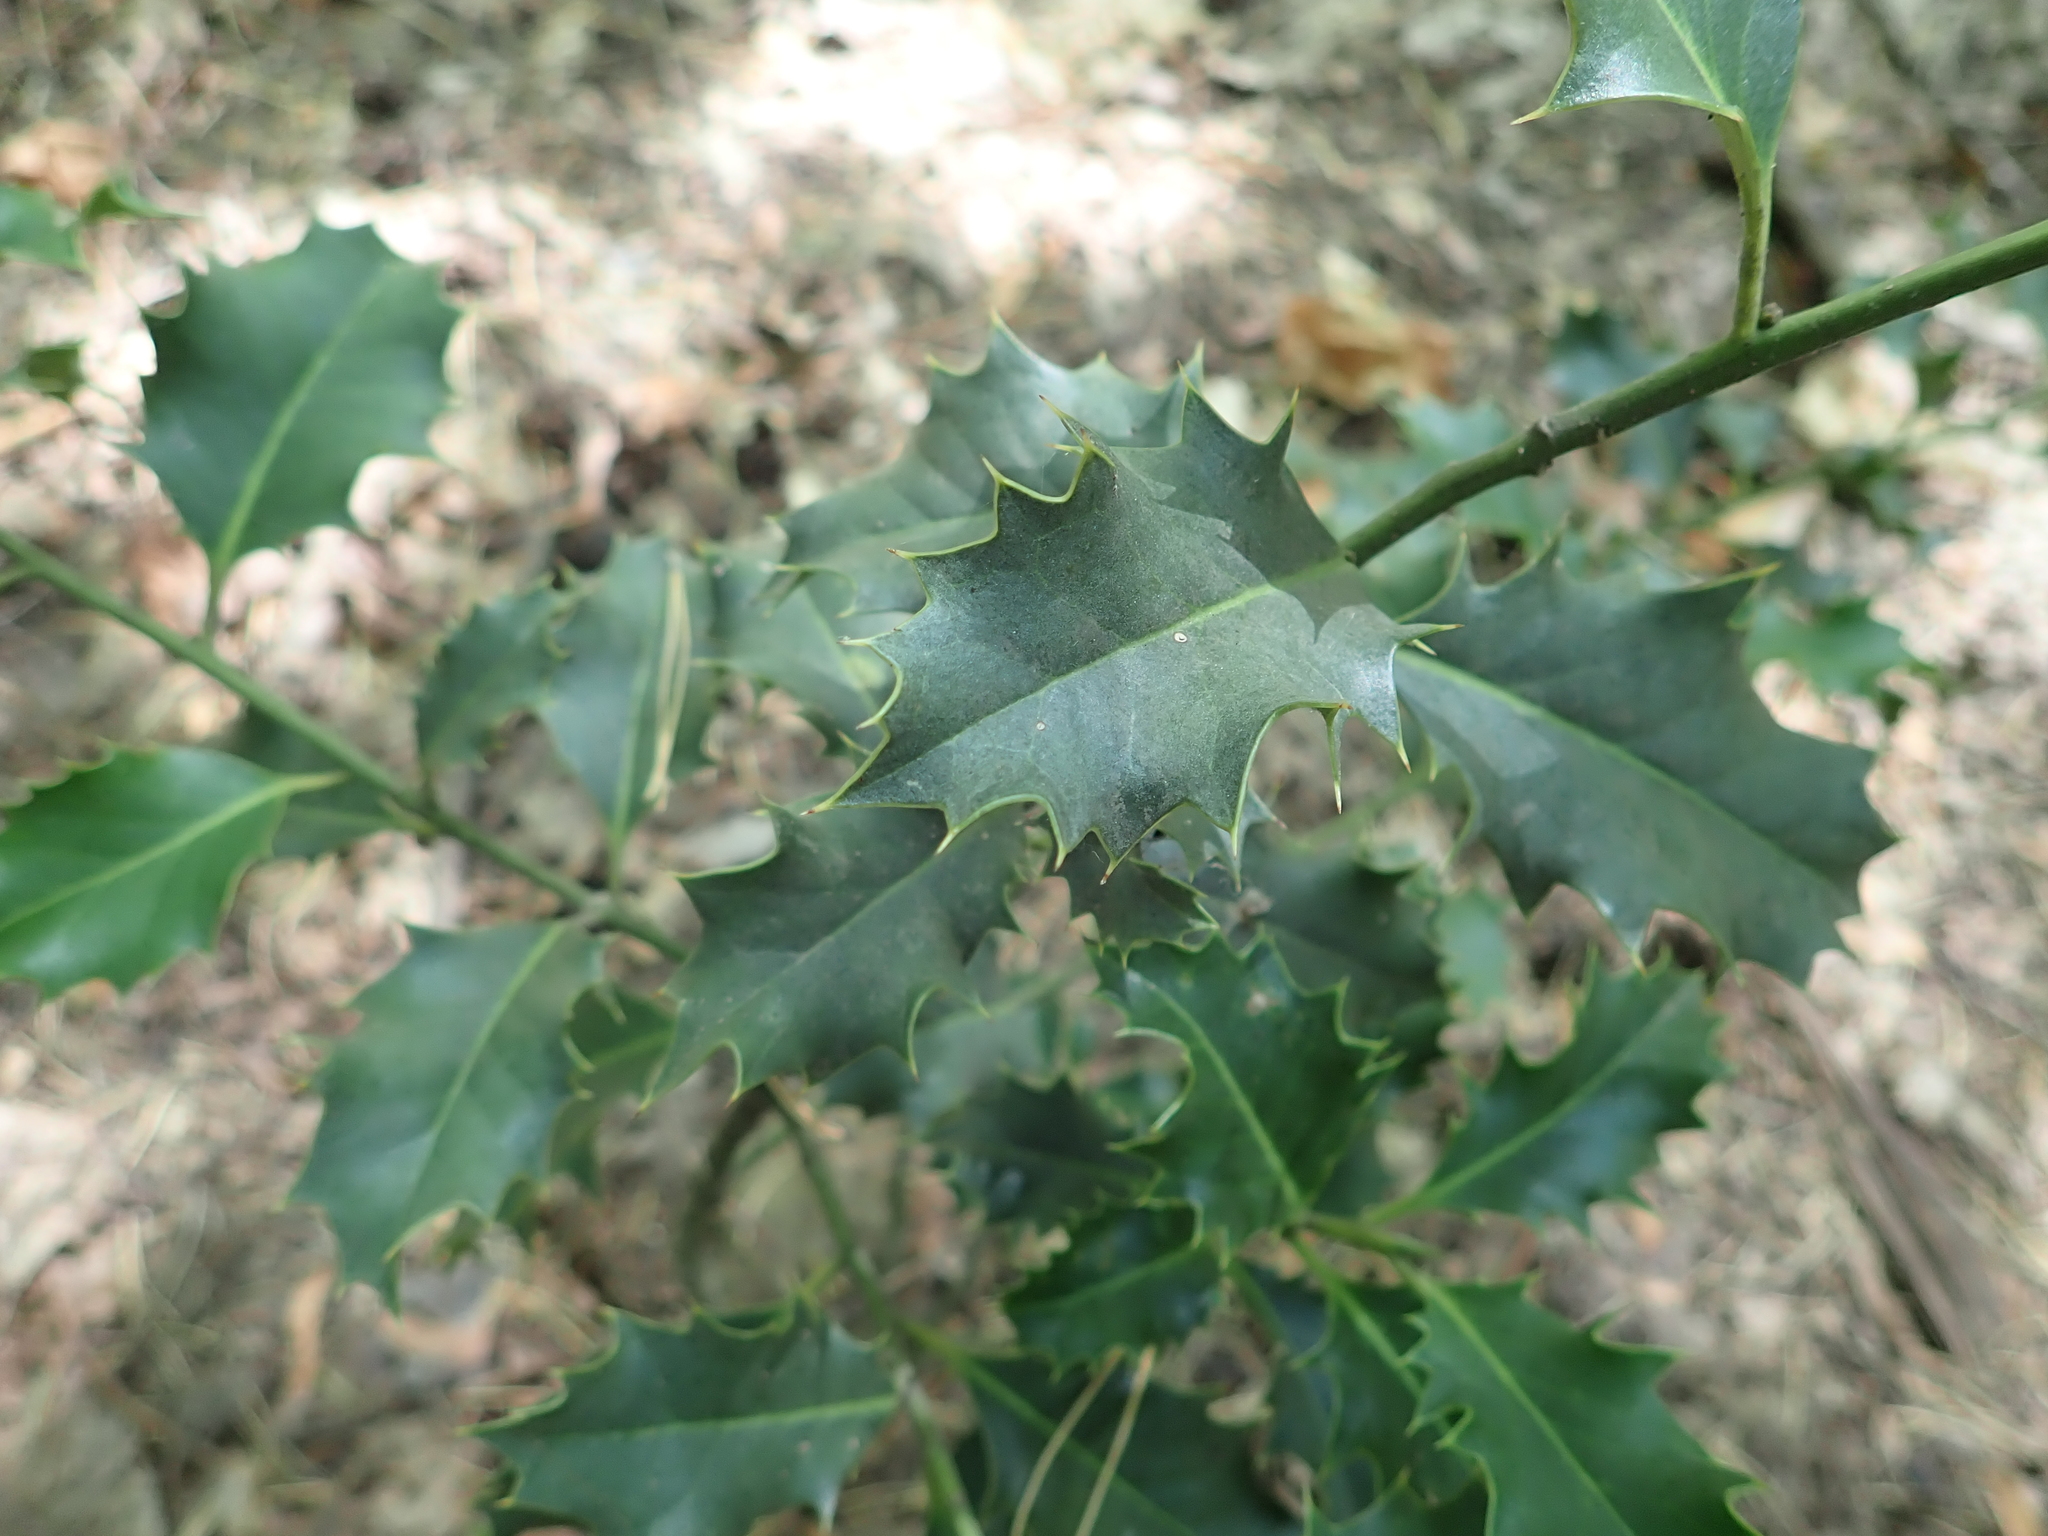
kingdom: Plantae
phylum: Tracheophyta
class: Magnoliopsida
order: Aquifoliales
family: Aquifoliaceae
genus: Ilex
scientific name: Ilex aquifolium
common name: English holly
